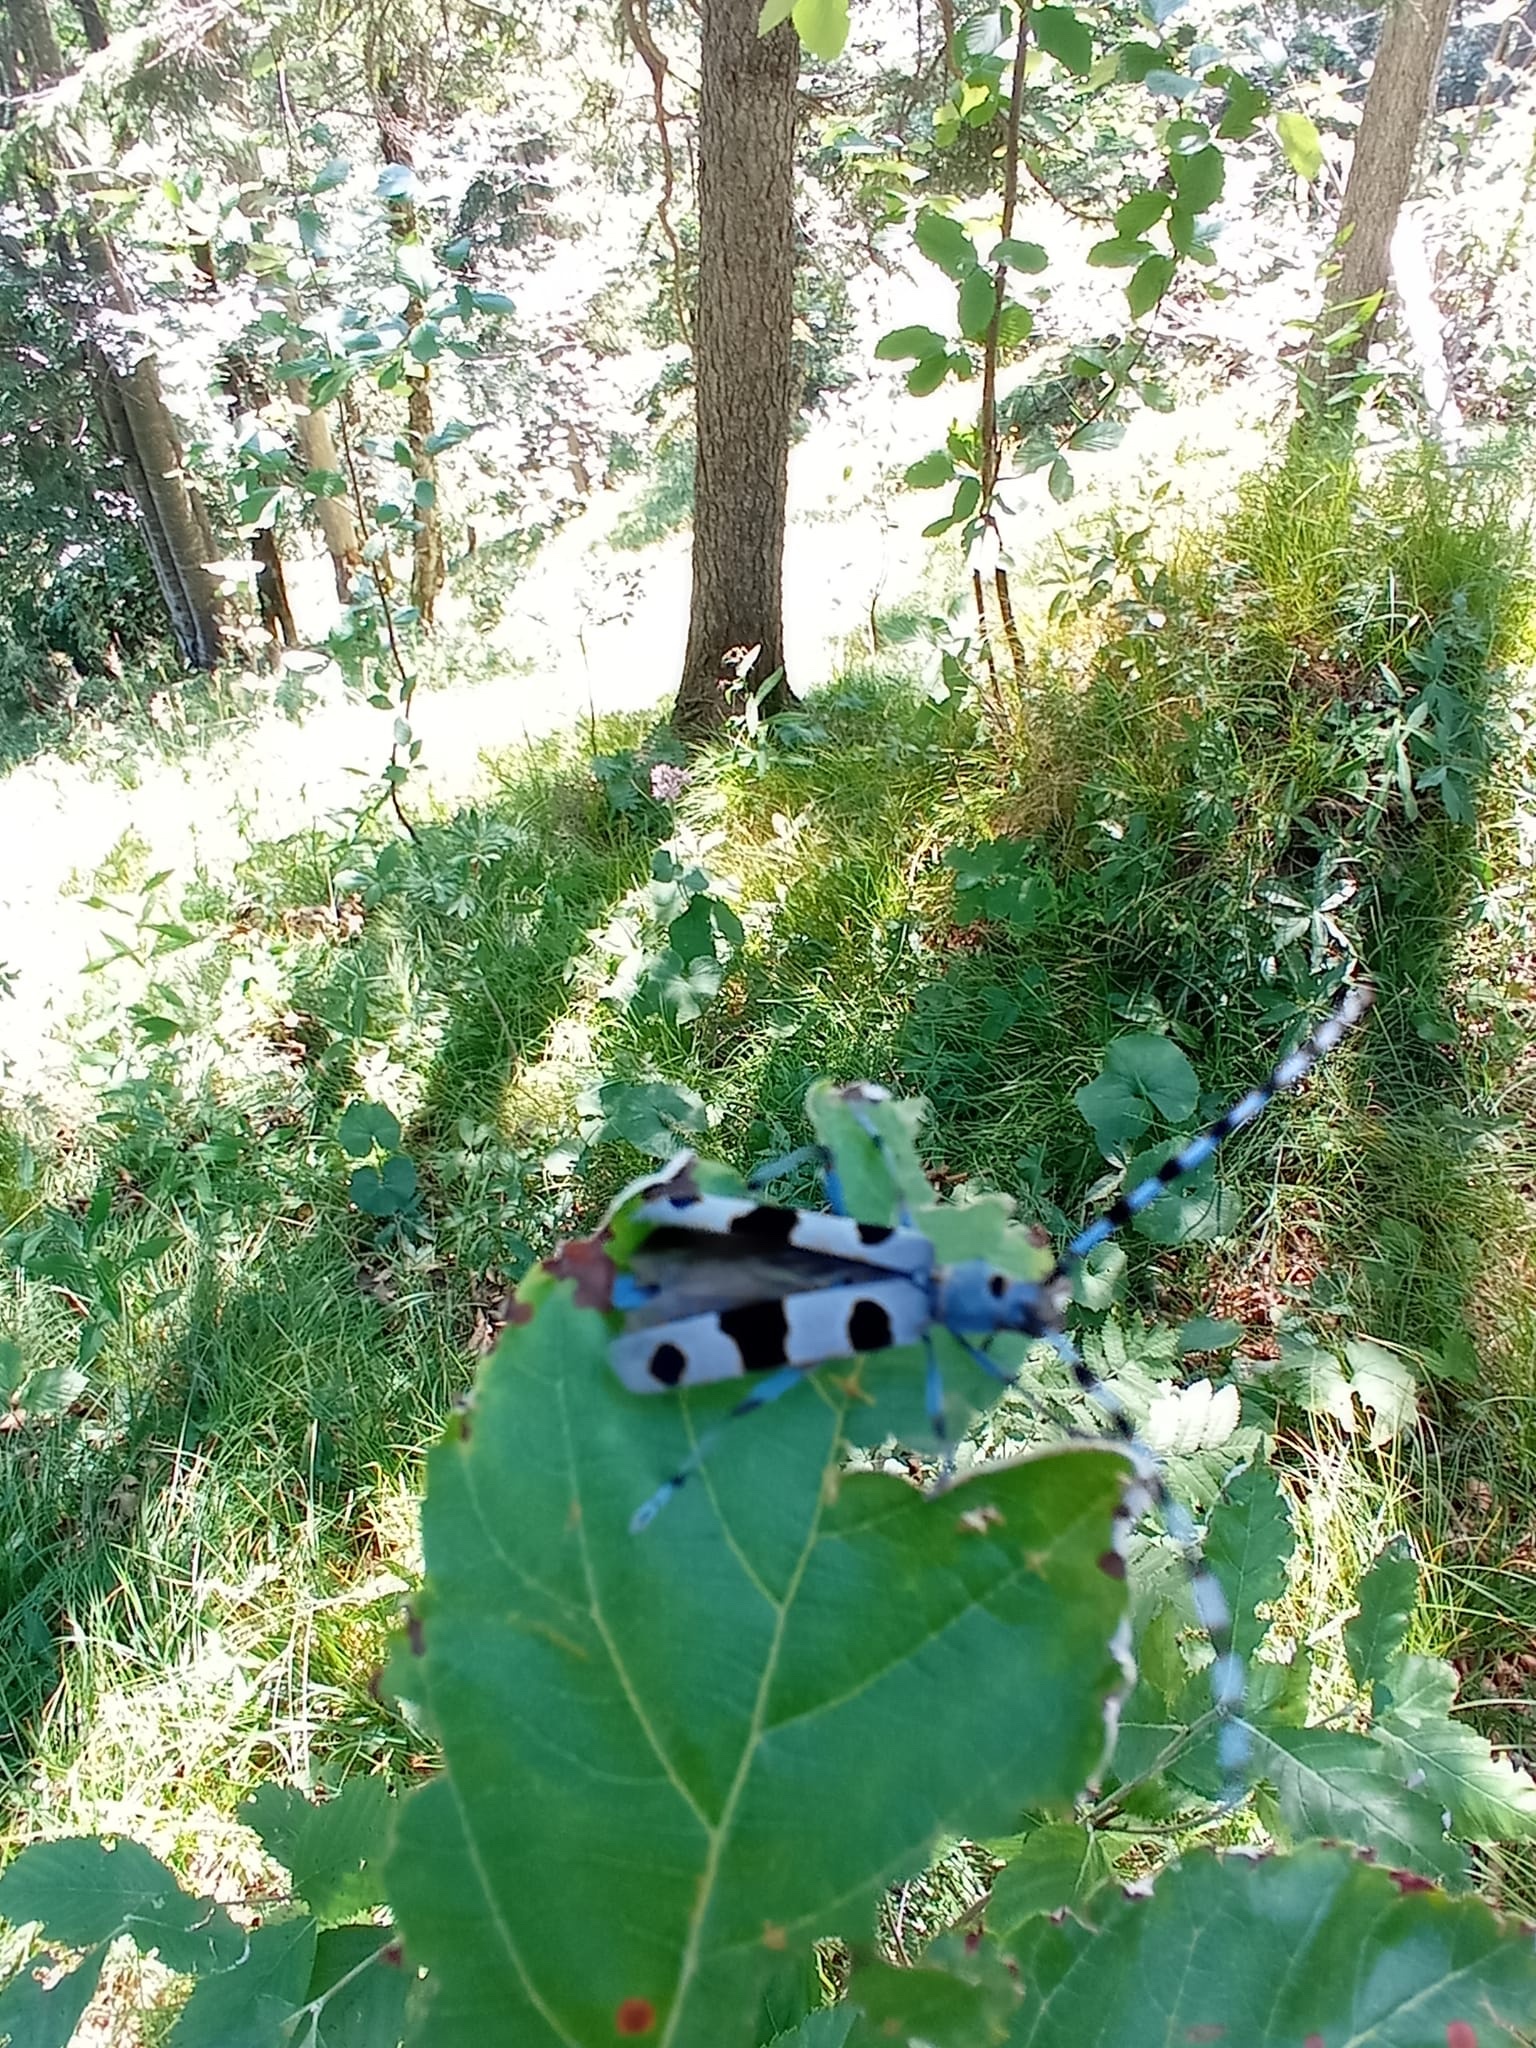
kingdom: Animalia
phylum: Arthropoda
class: Insecta
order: Coleoptera
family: Cerambycidae
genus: Rosalia
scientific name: Rosalia alpina
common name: Rosalia longicorn
